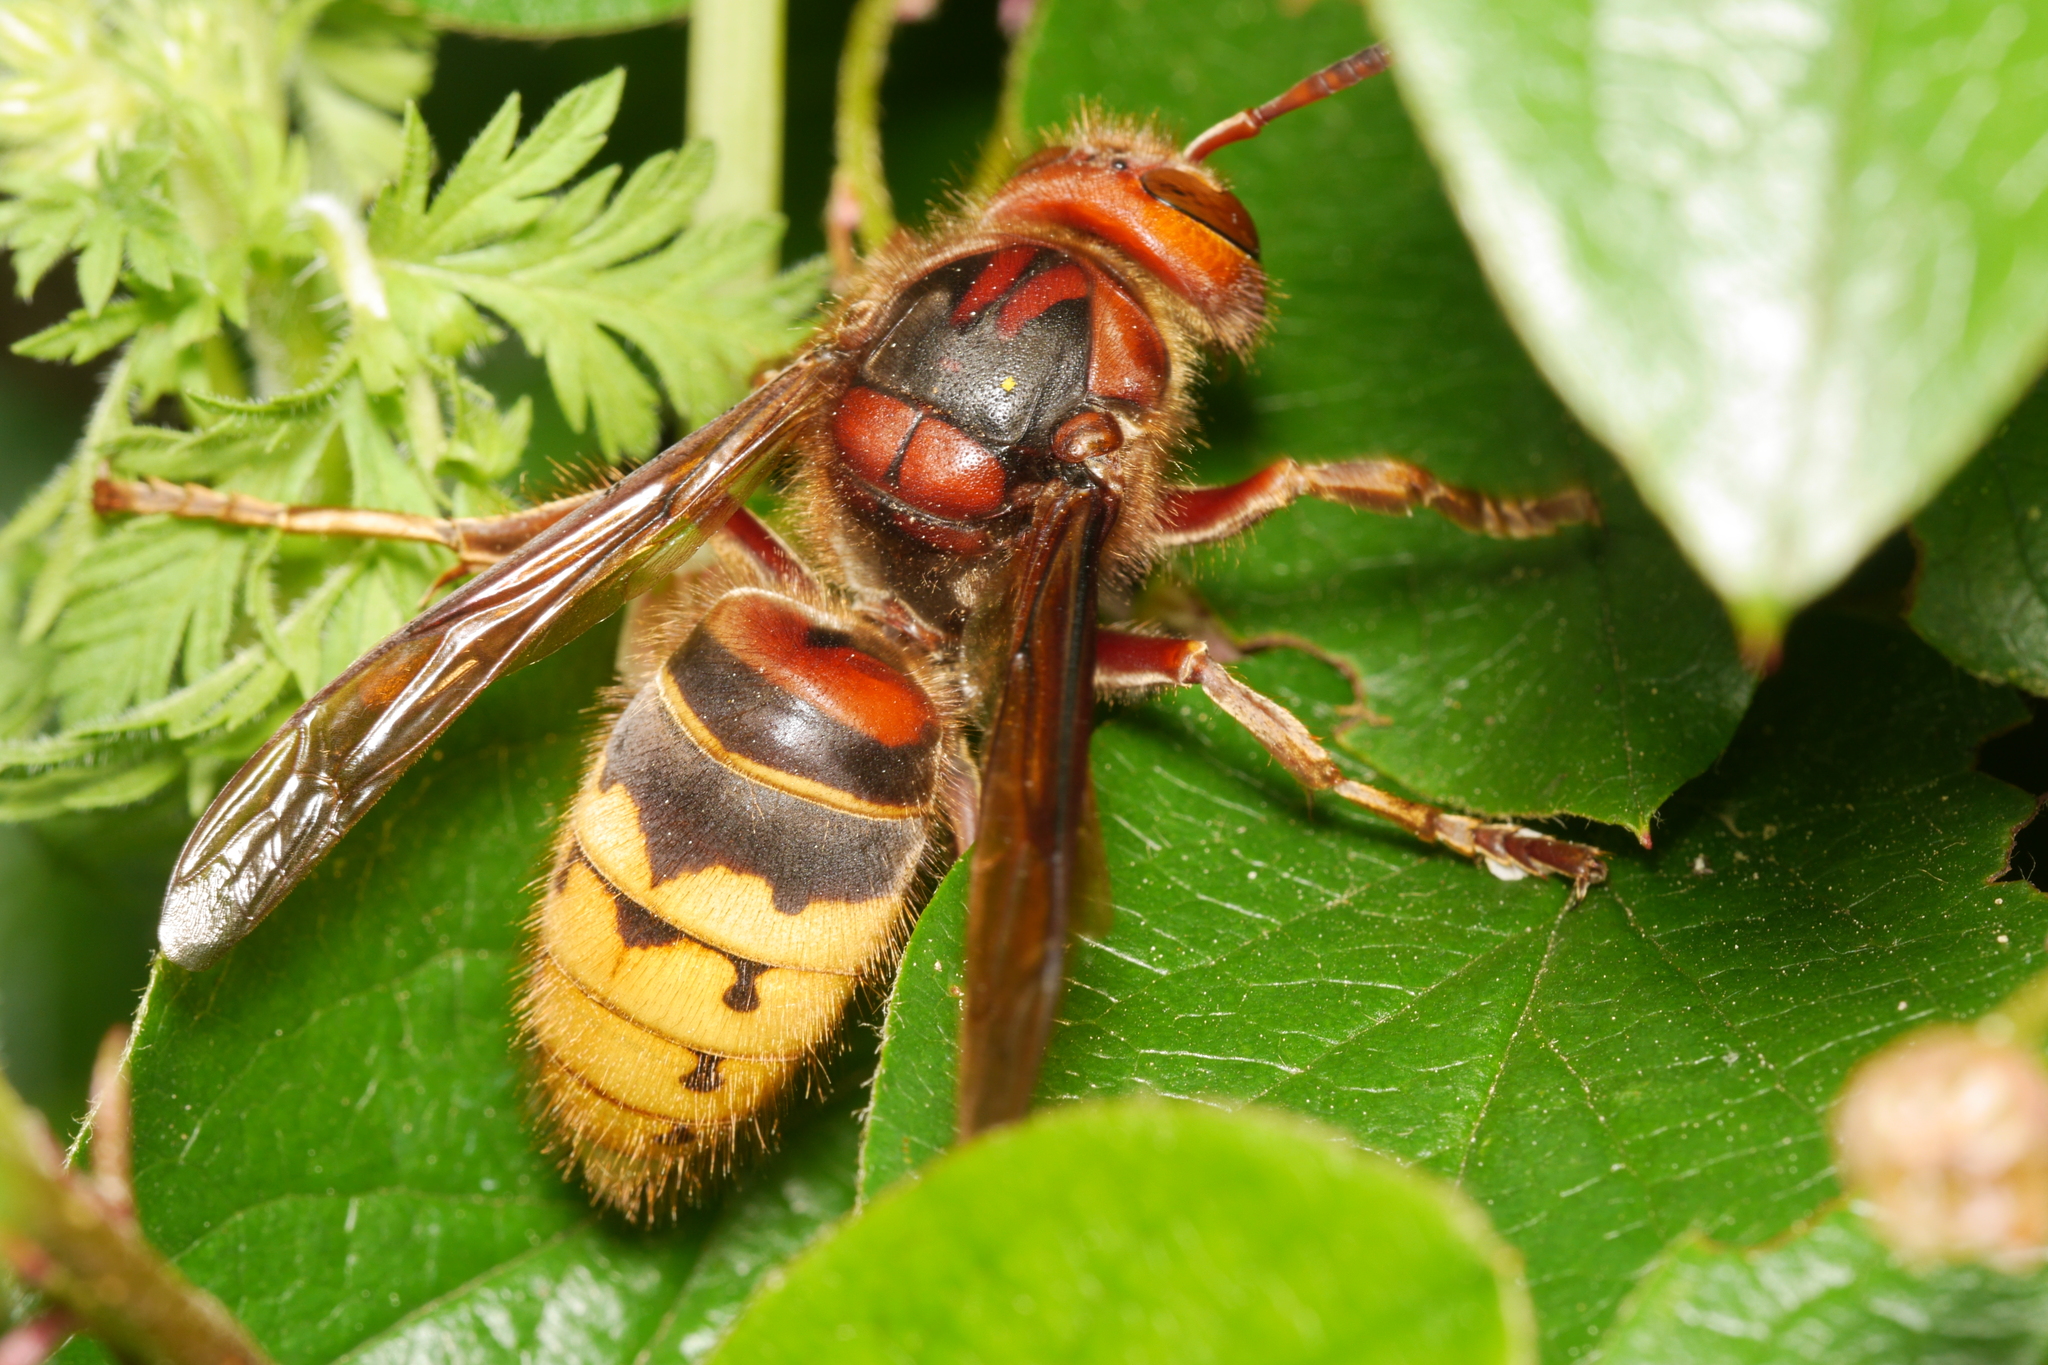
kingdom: Animalia
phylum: Arthropoda
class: Insecta
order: Hymenoptera
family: Vespidae
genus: Vespa
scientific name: Vespa crabro
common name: Hornet
